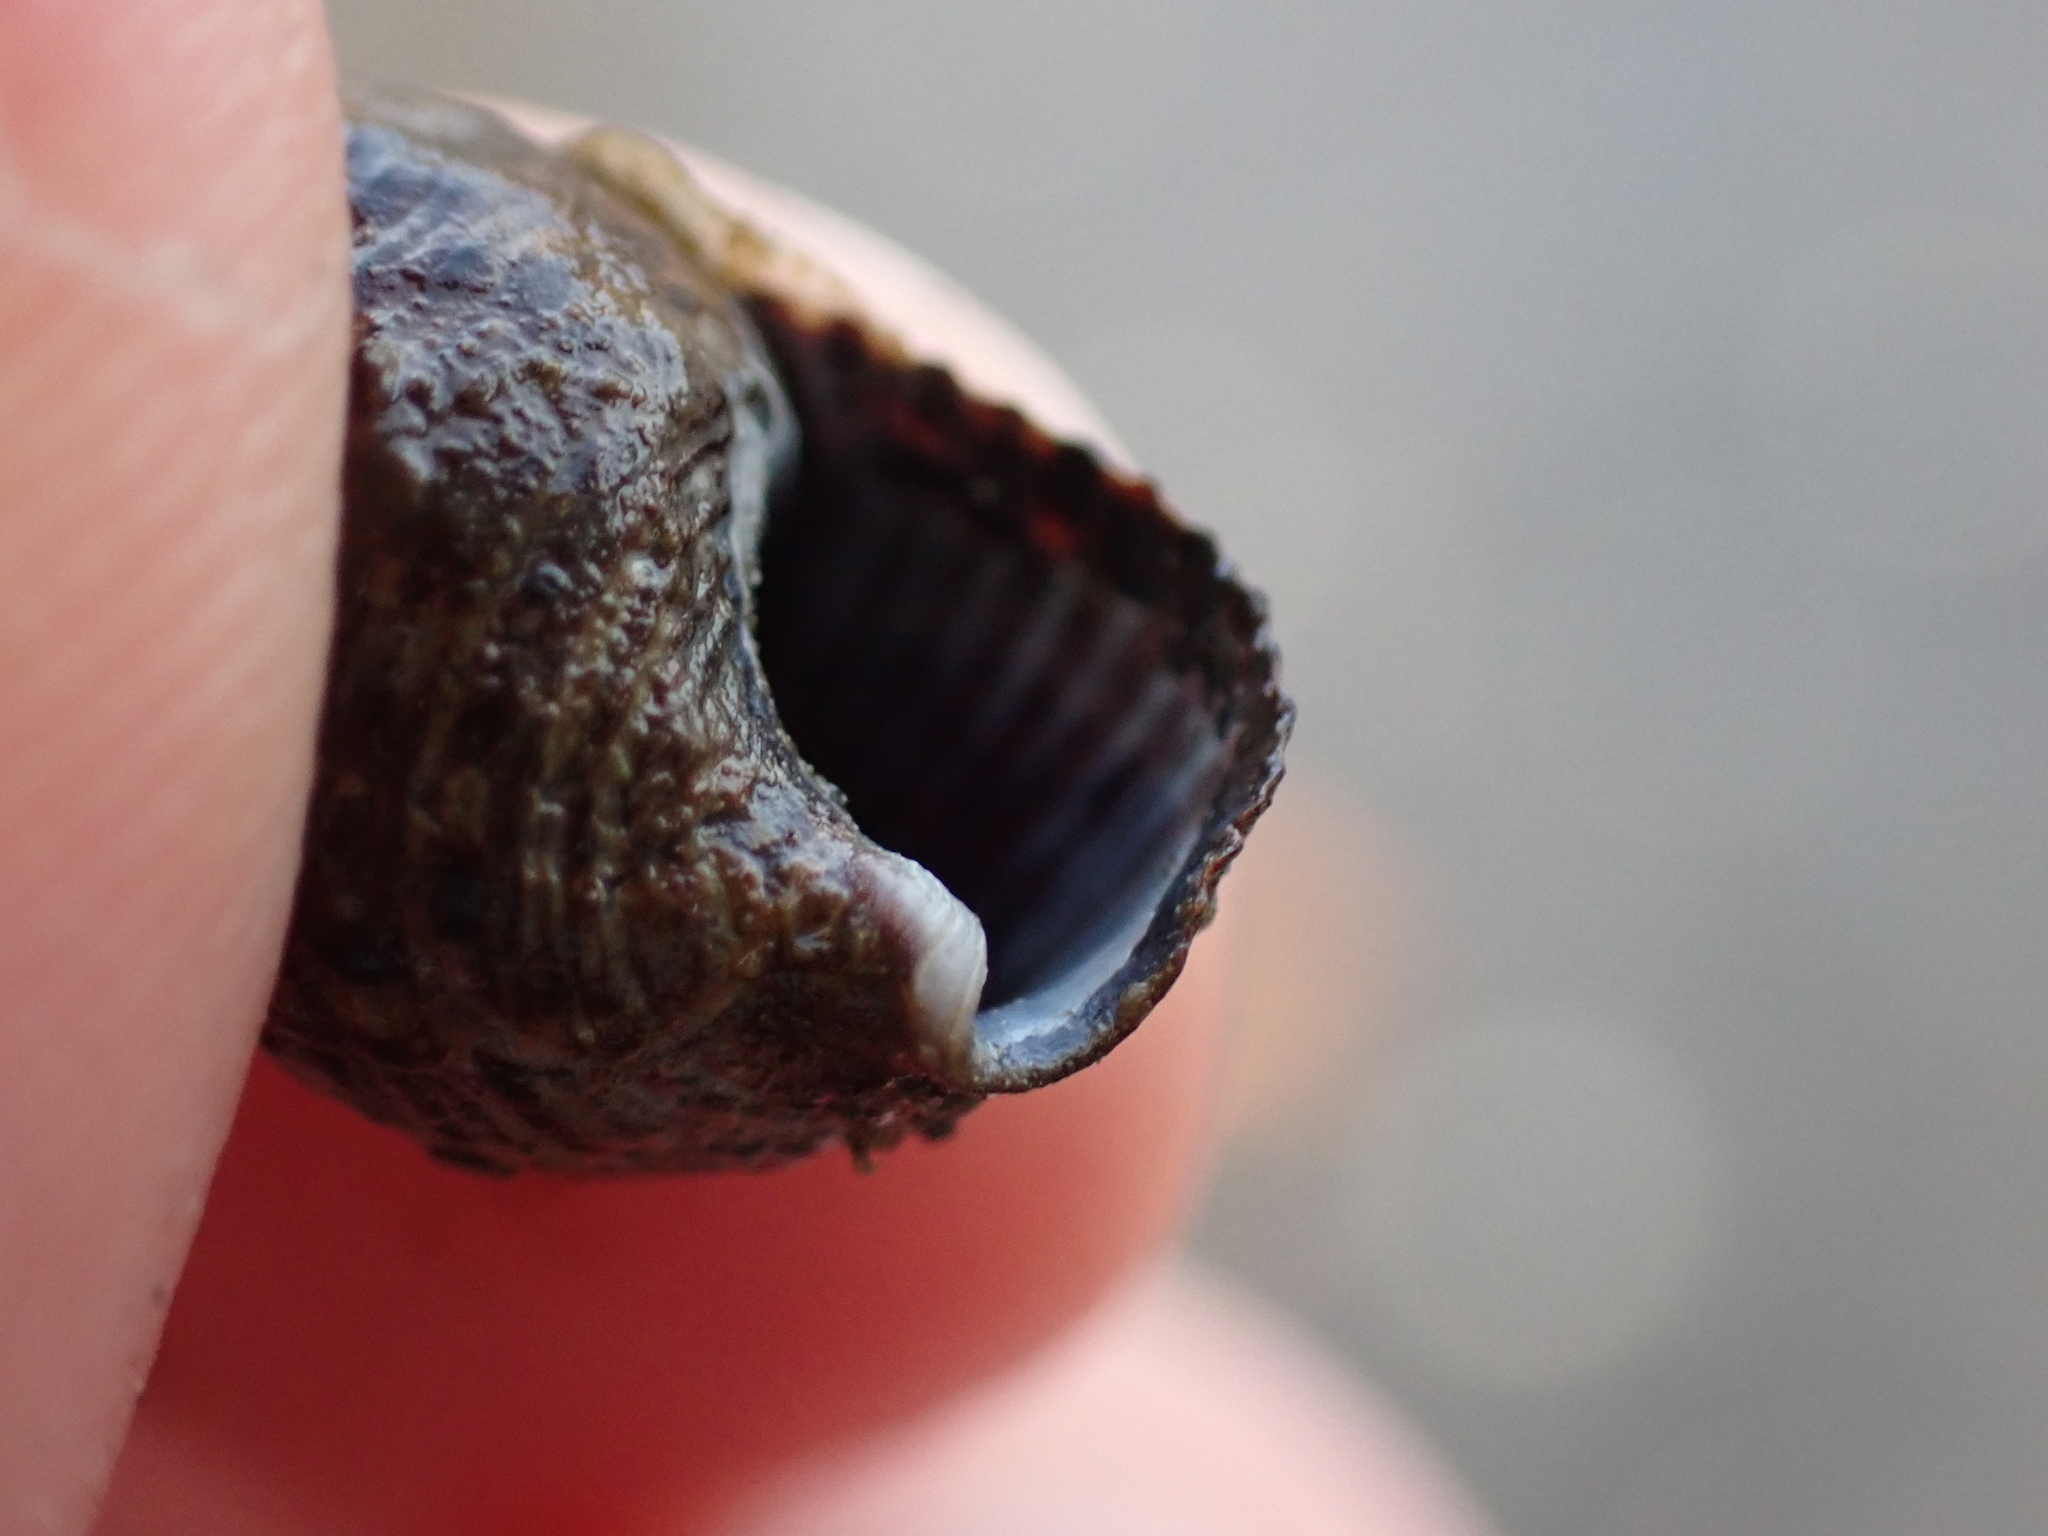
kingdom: Animalia
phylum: Mollusca
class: Gastropoda
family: Batillariidae
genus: Batillaria
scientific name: Batillaria attramentaria
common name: Japanese false cerith
